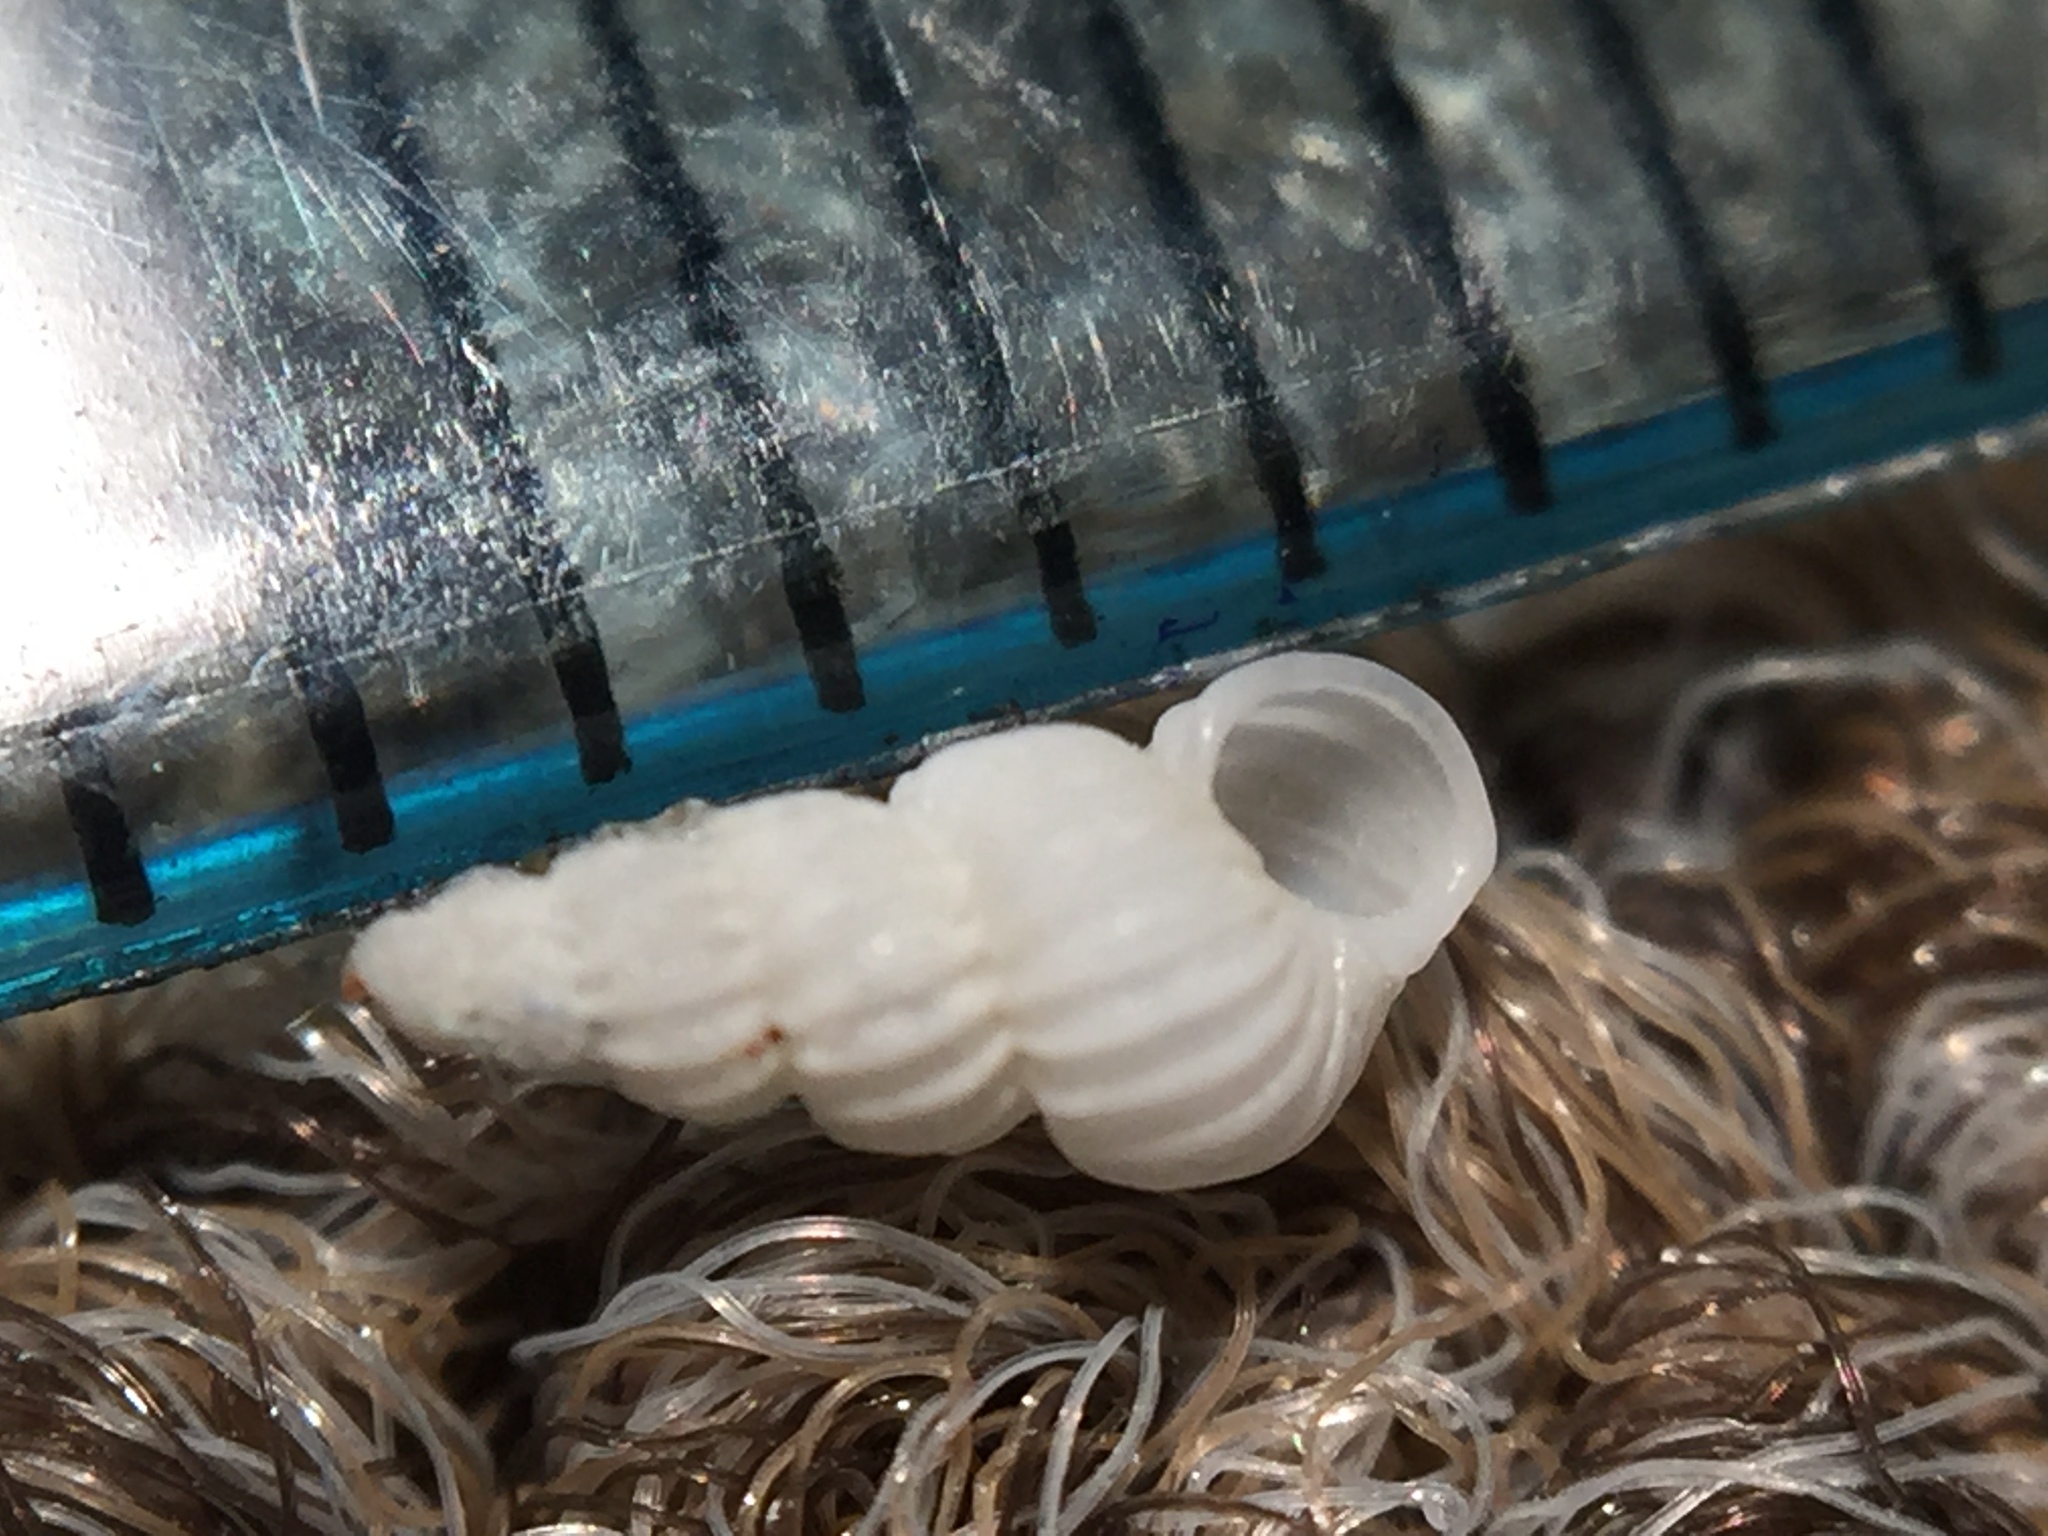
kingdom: Animalia
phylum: Mollusca
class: Gastropoda
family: Epitoniidae
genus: Epitonium
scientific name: Epitonium jukesianum
